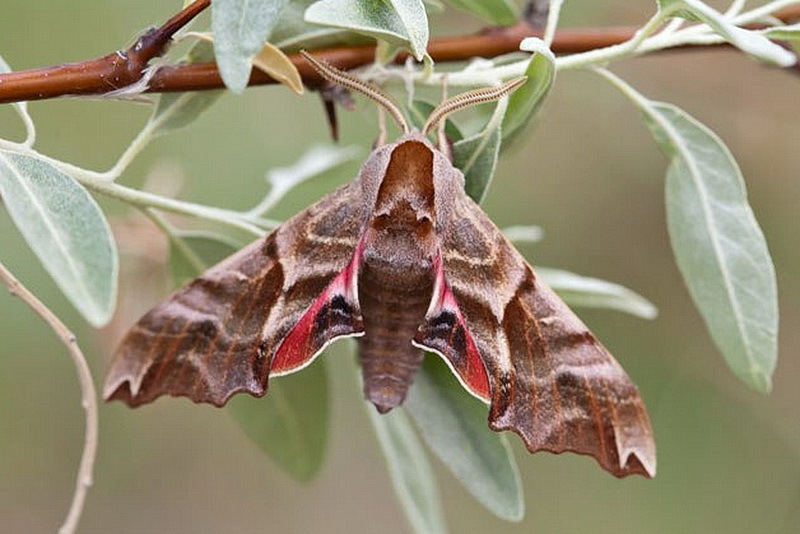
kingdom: Animalia
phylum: Arthropoda
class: Insecta
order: Lepidoptera
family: Sphingidae
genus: Smerinthus
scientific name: Smerinthus kindermannii
